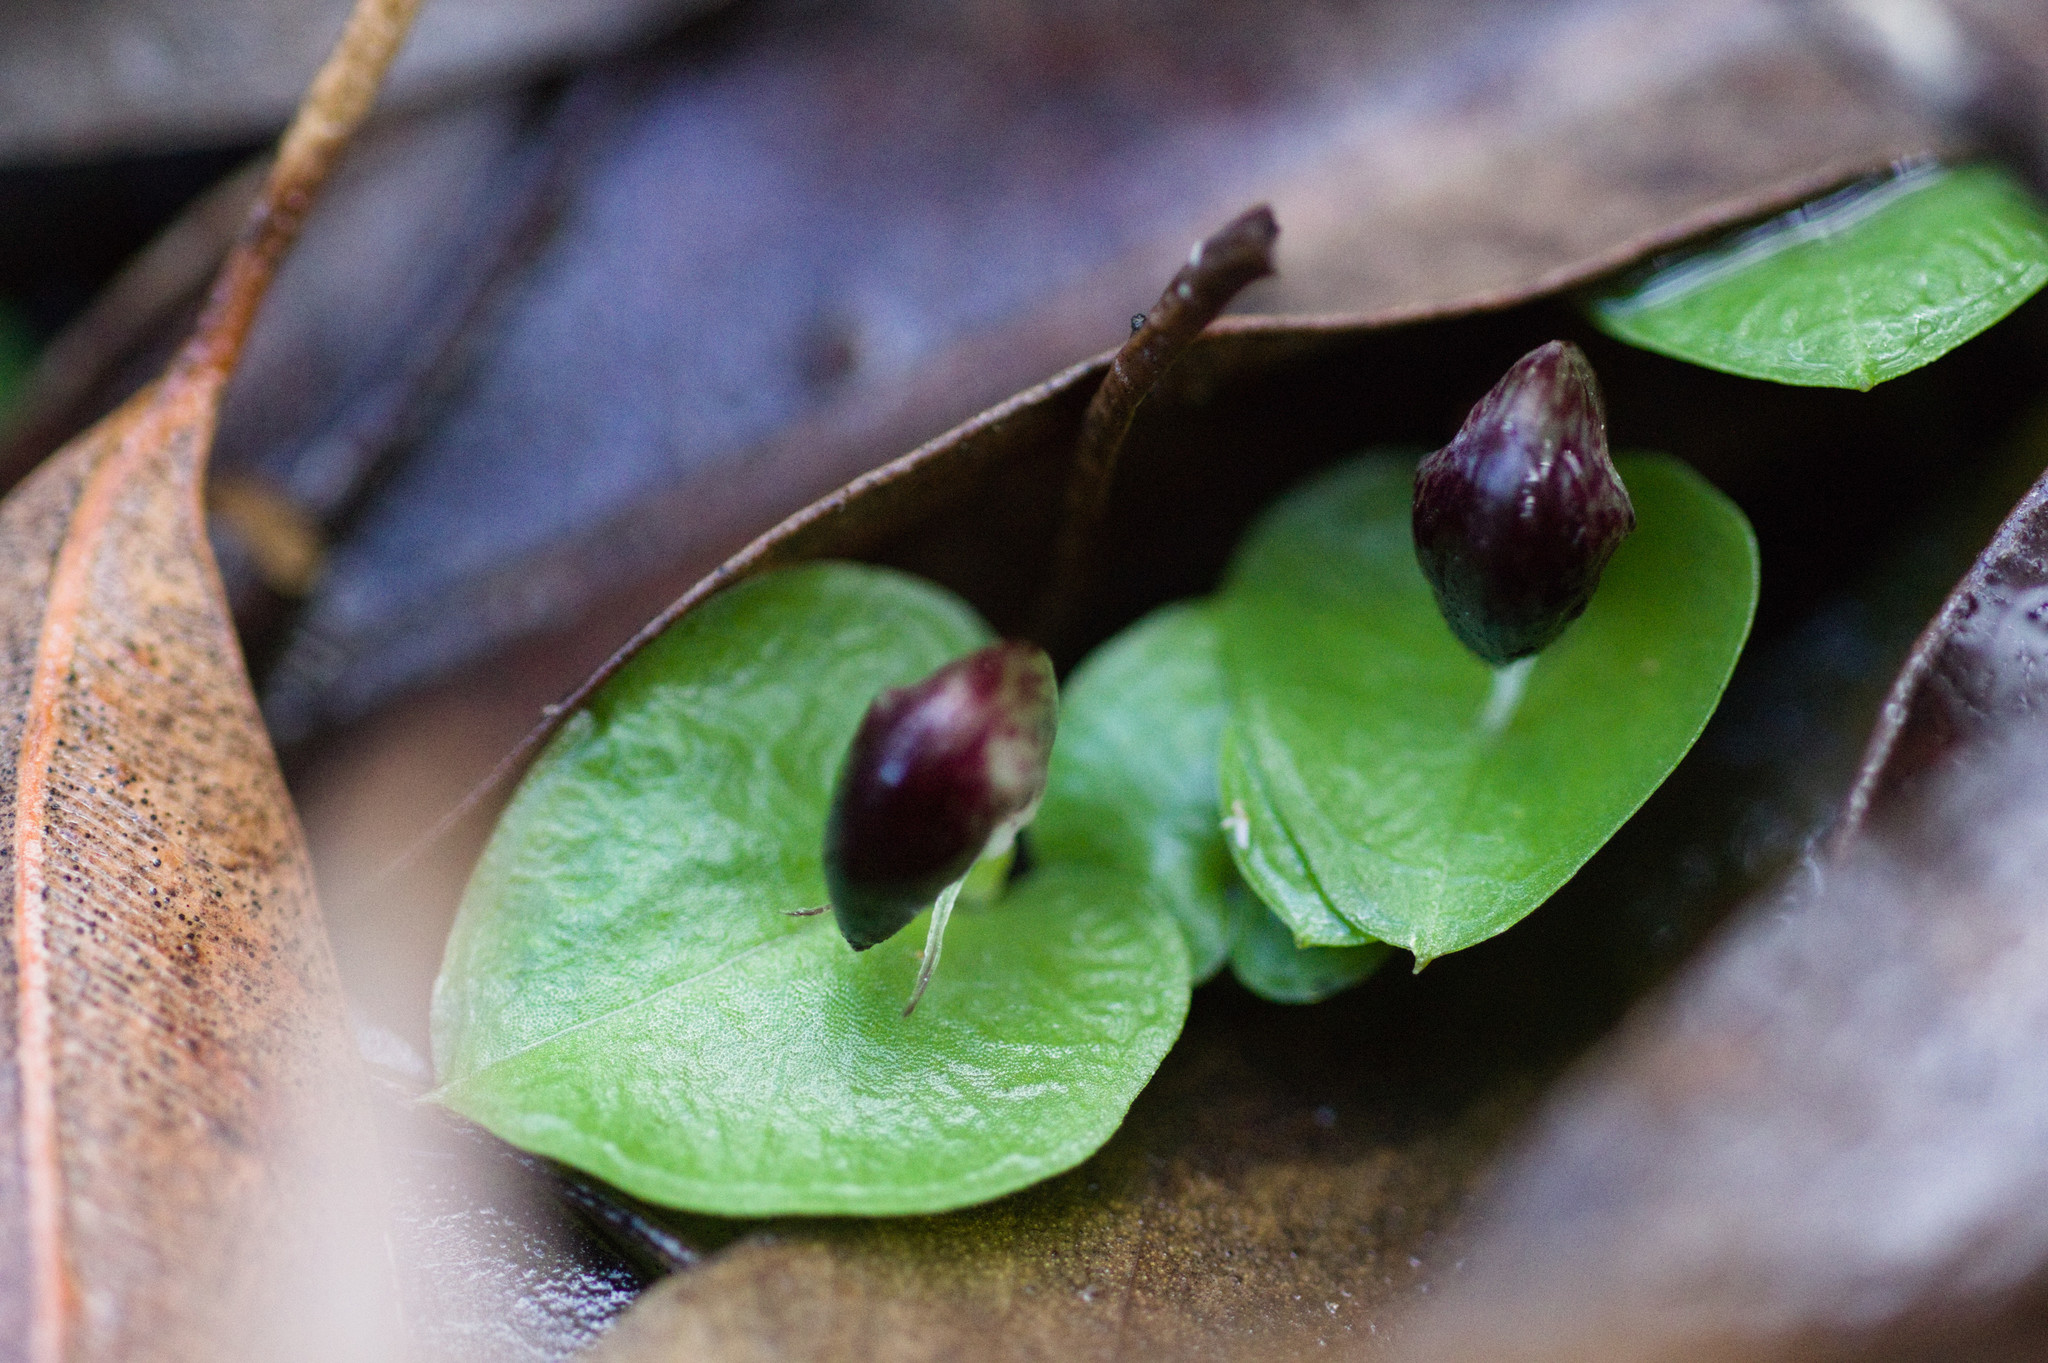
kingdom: Plantae
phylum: Tracheophyta
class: Liliopsida
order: Asparagales
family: Orchidaceae
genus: Corybas
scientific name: Corybas recurvus
